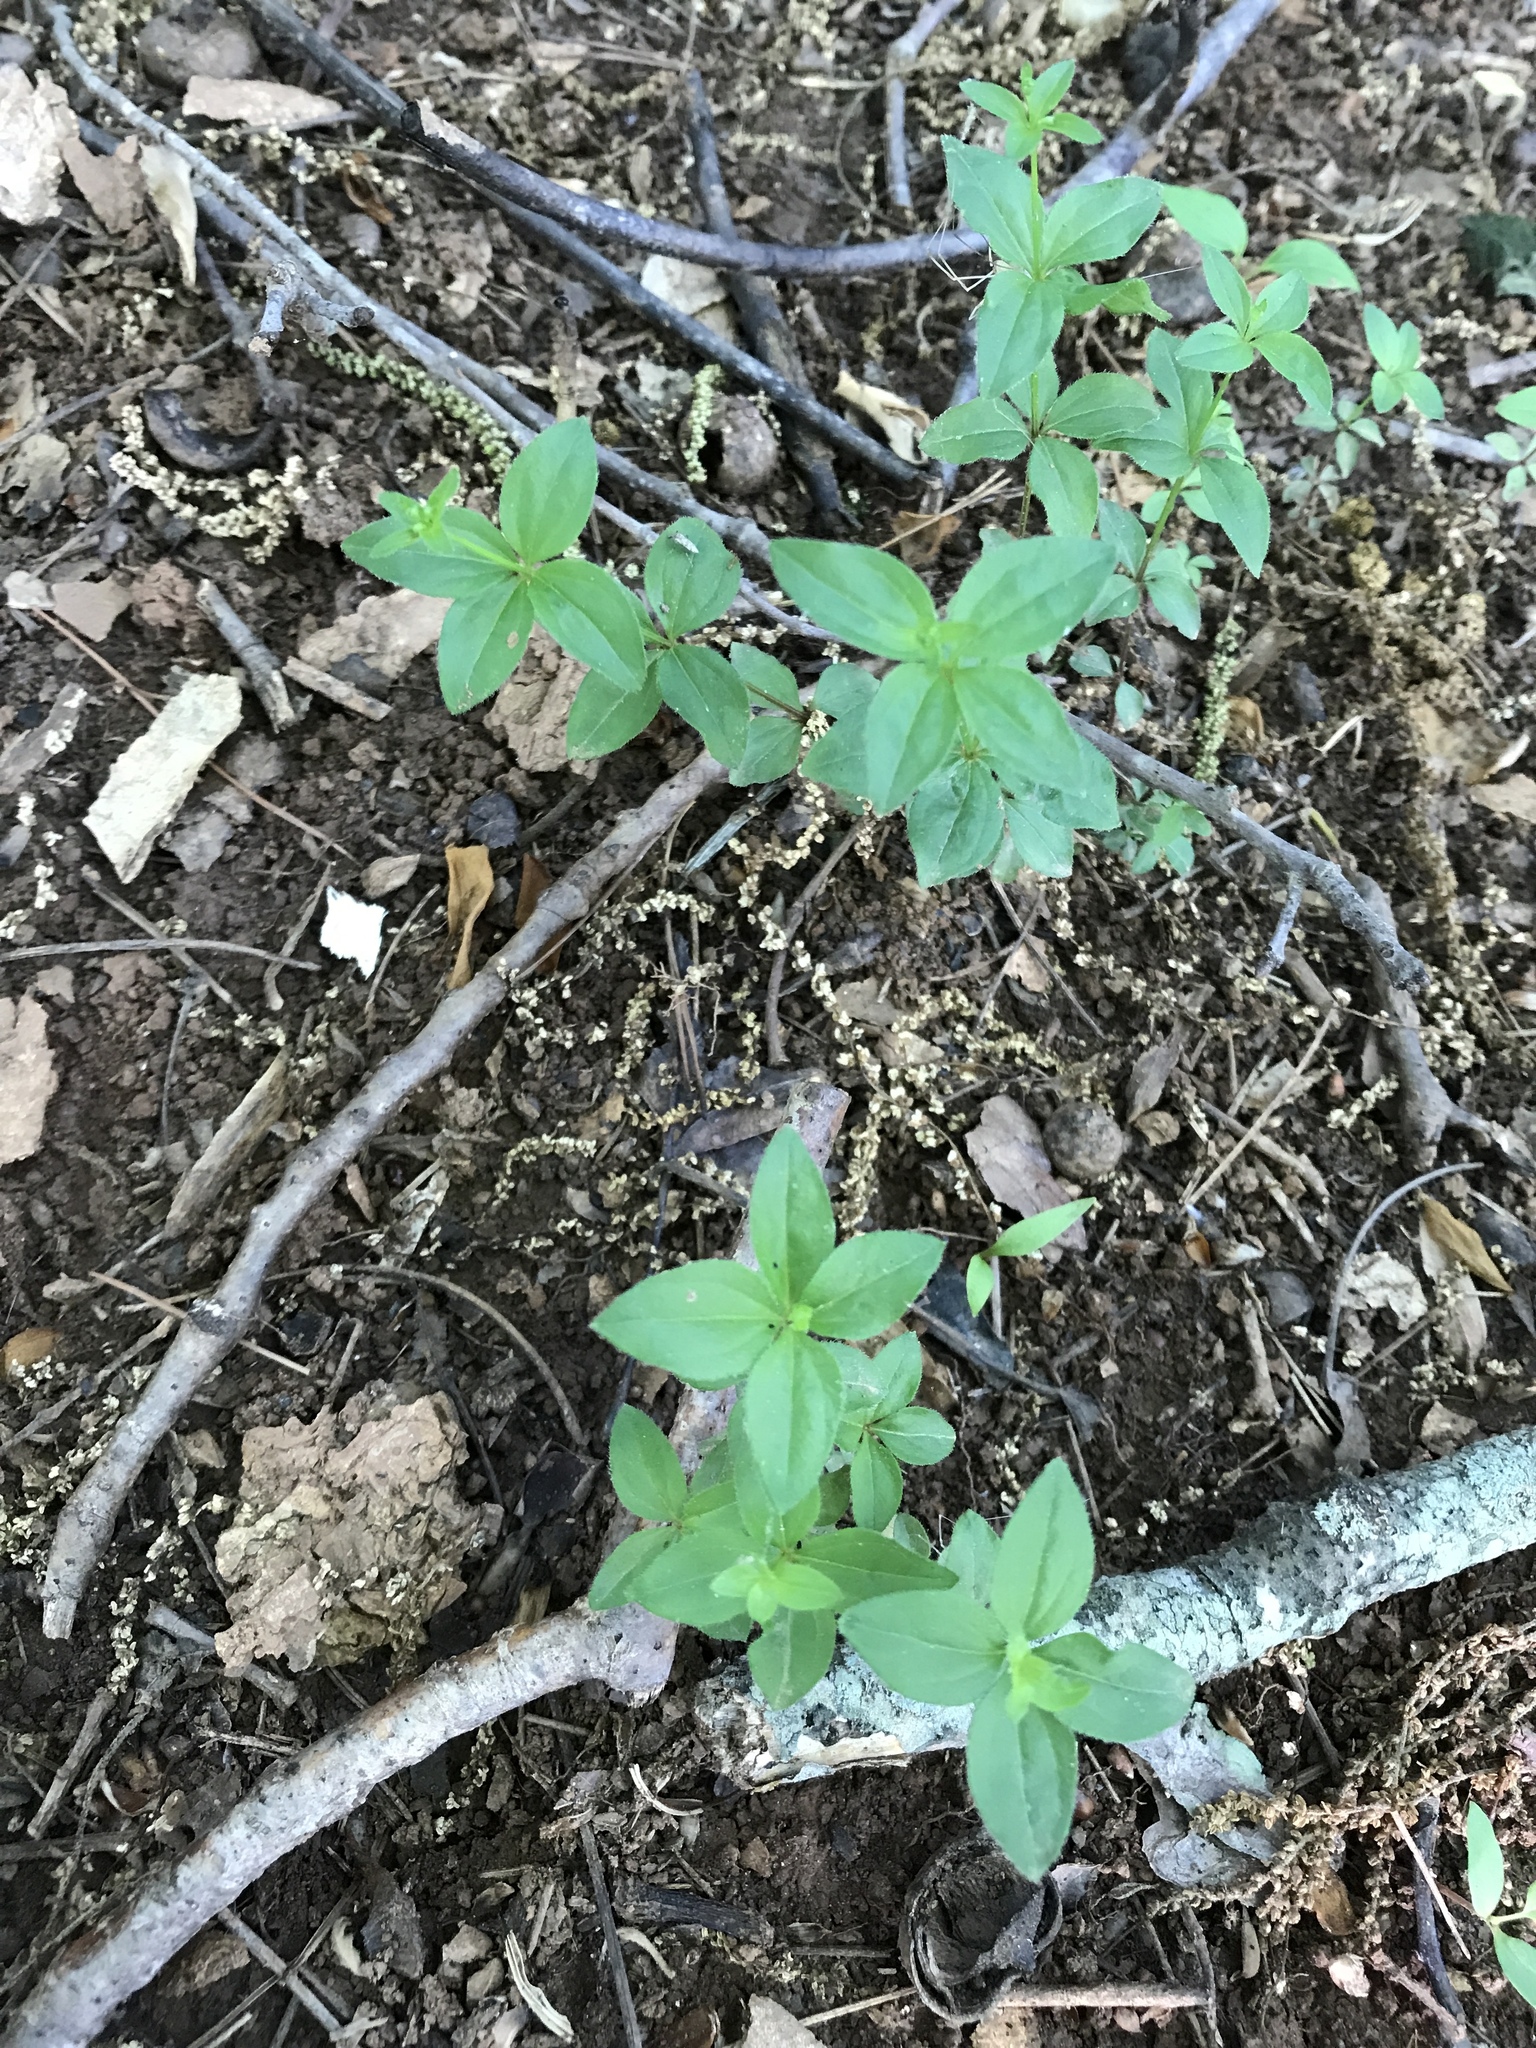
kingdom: Plantae
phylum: Tracheophyta
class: Magnoliopsida
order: Gentianales
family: Rubiaceae
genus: Galium
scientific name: Galium circaezans
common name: Forest bedstraw
